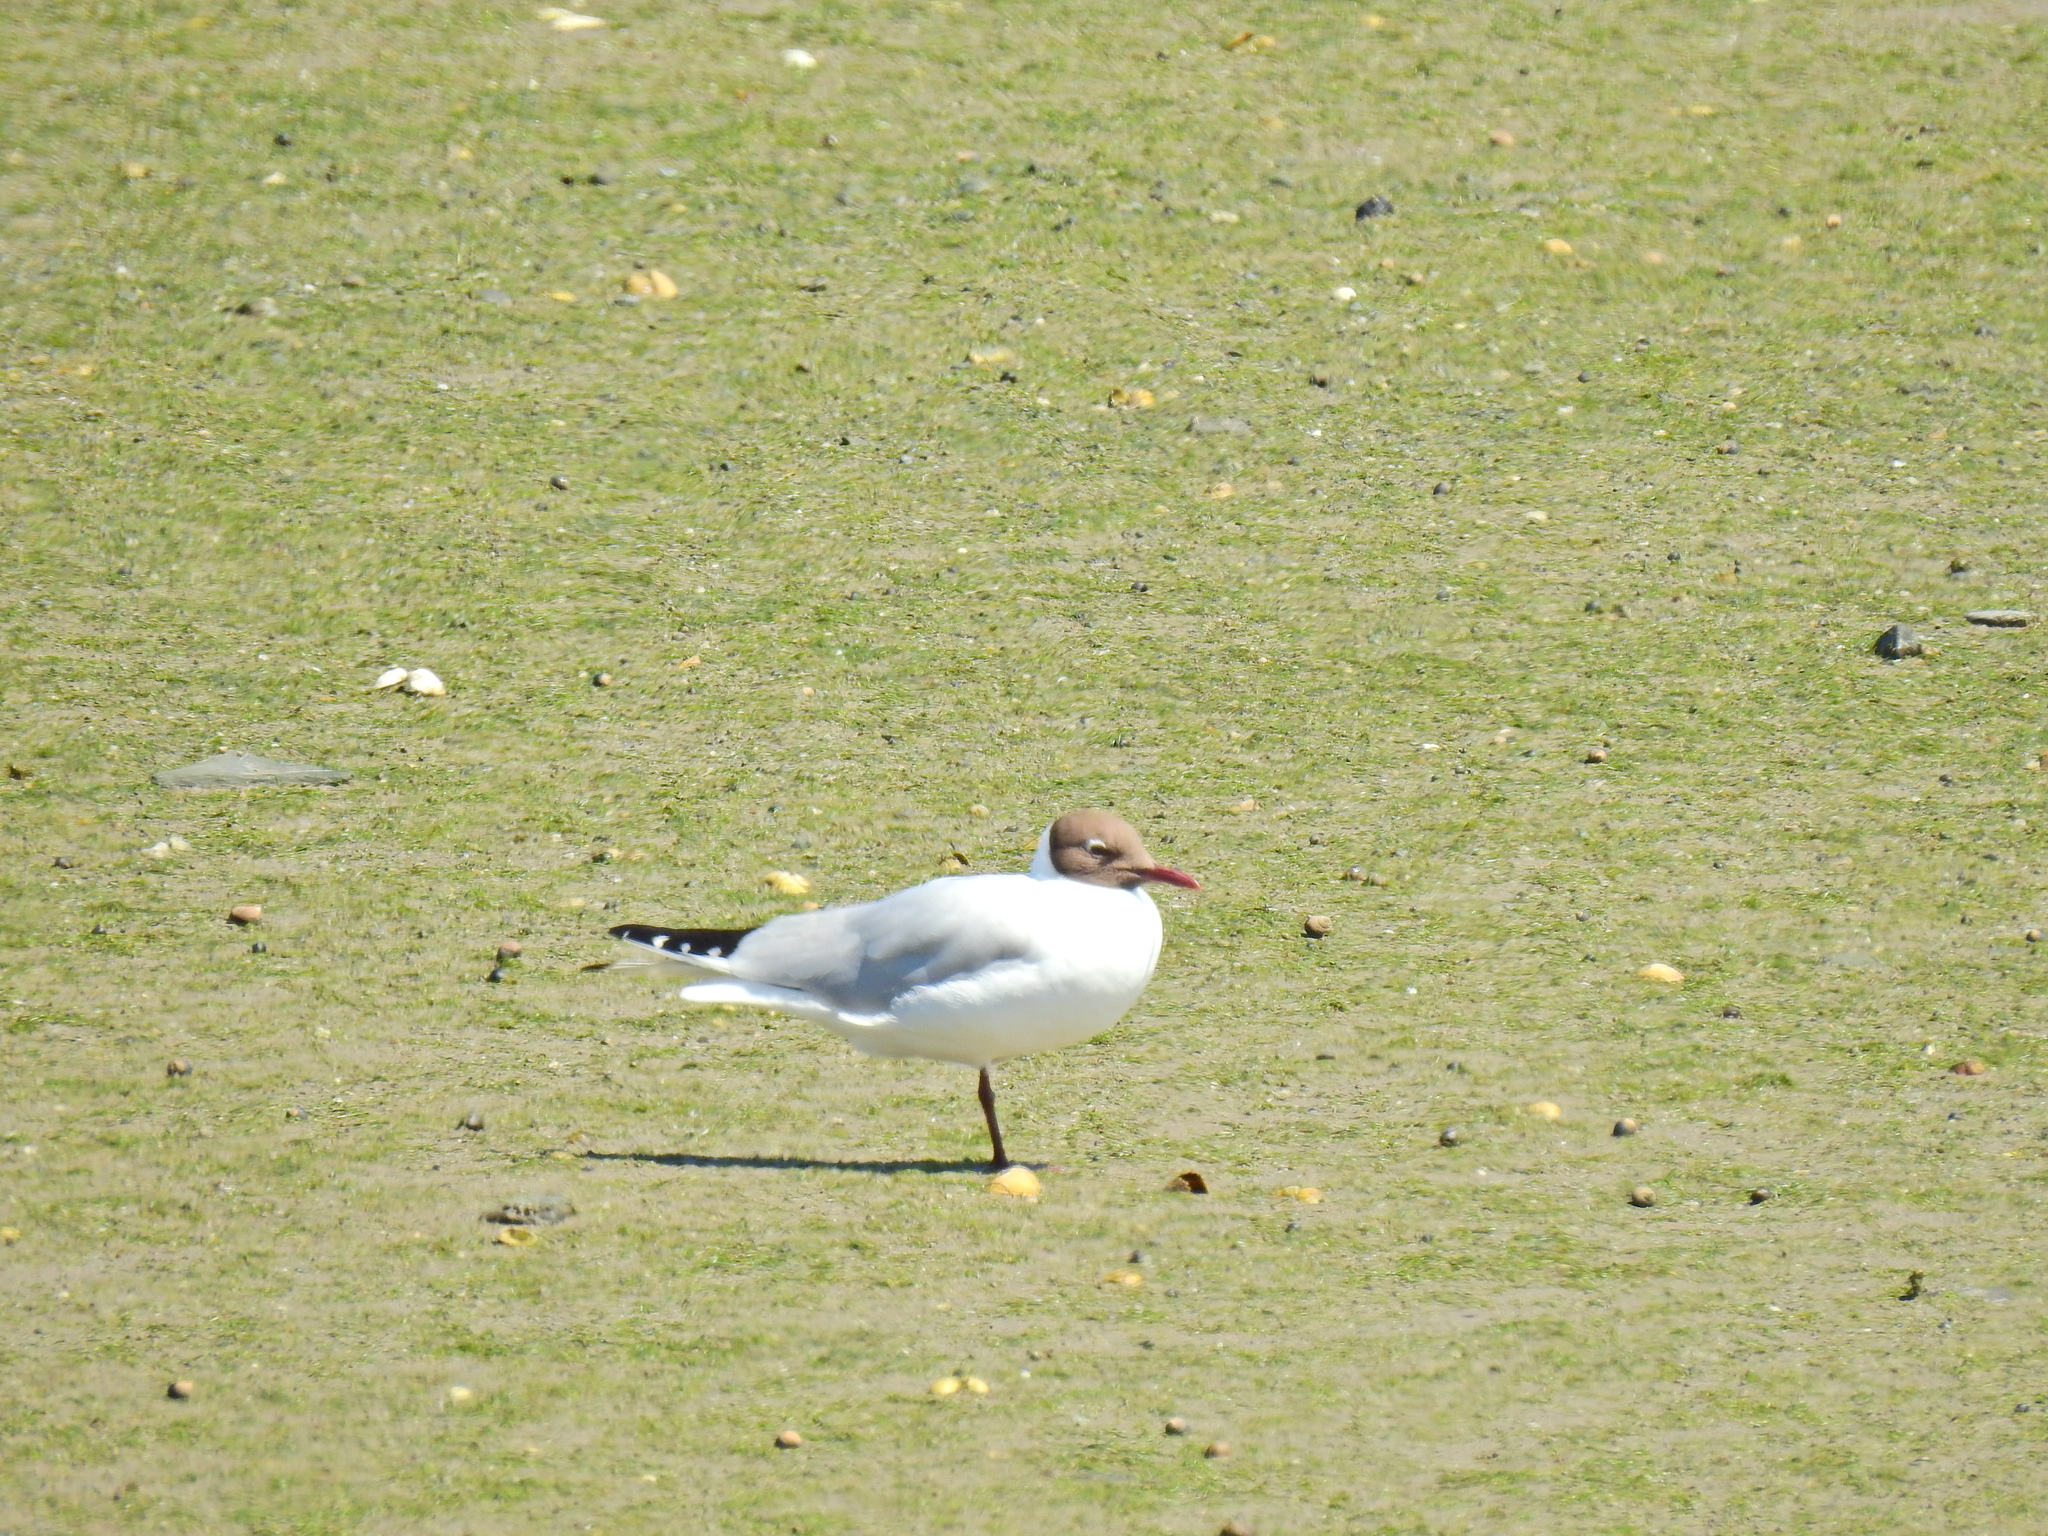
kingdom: Animalia
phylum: Chordata
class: Aves
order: Charadriiformes
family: Laridae
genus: Chroicocephalus
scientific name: Chroicocephalus ridibundus
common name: Black-headed gull
